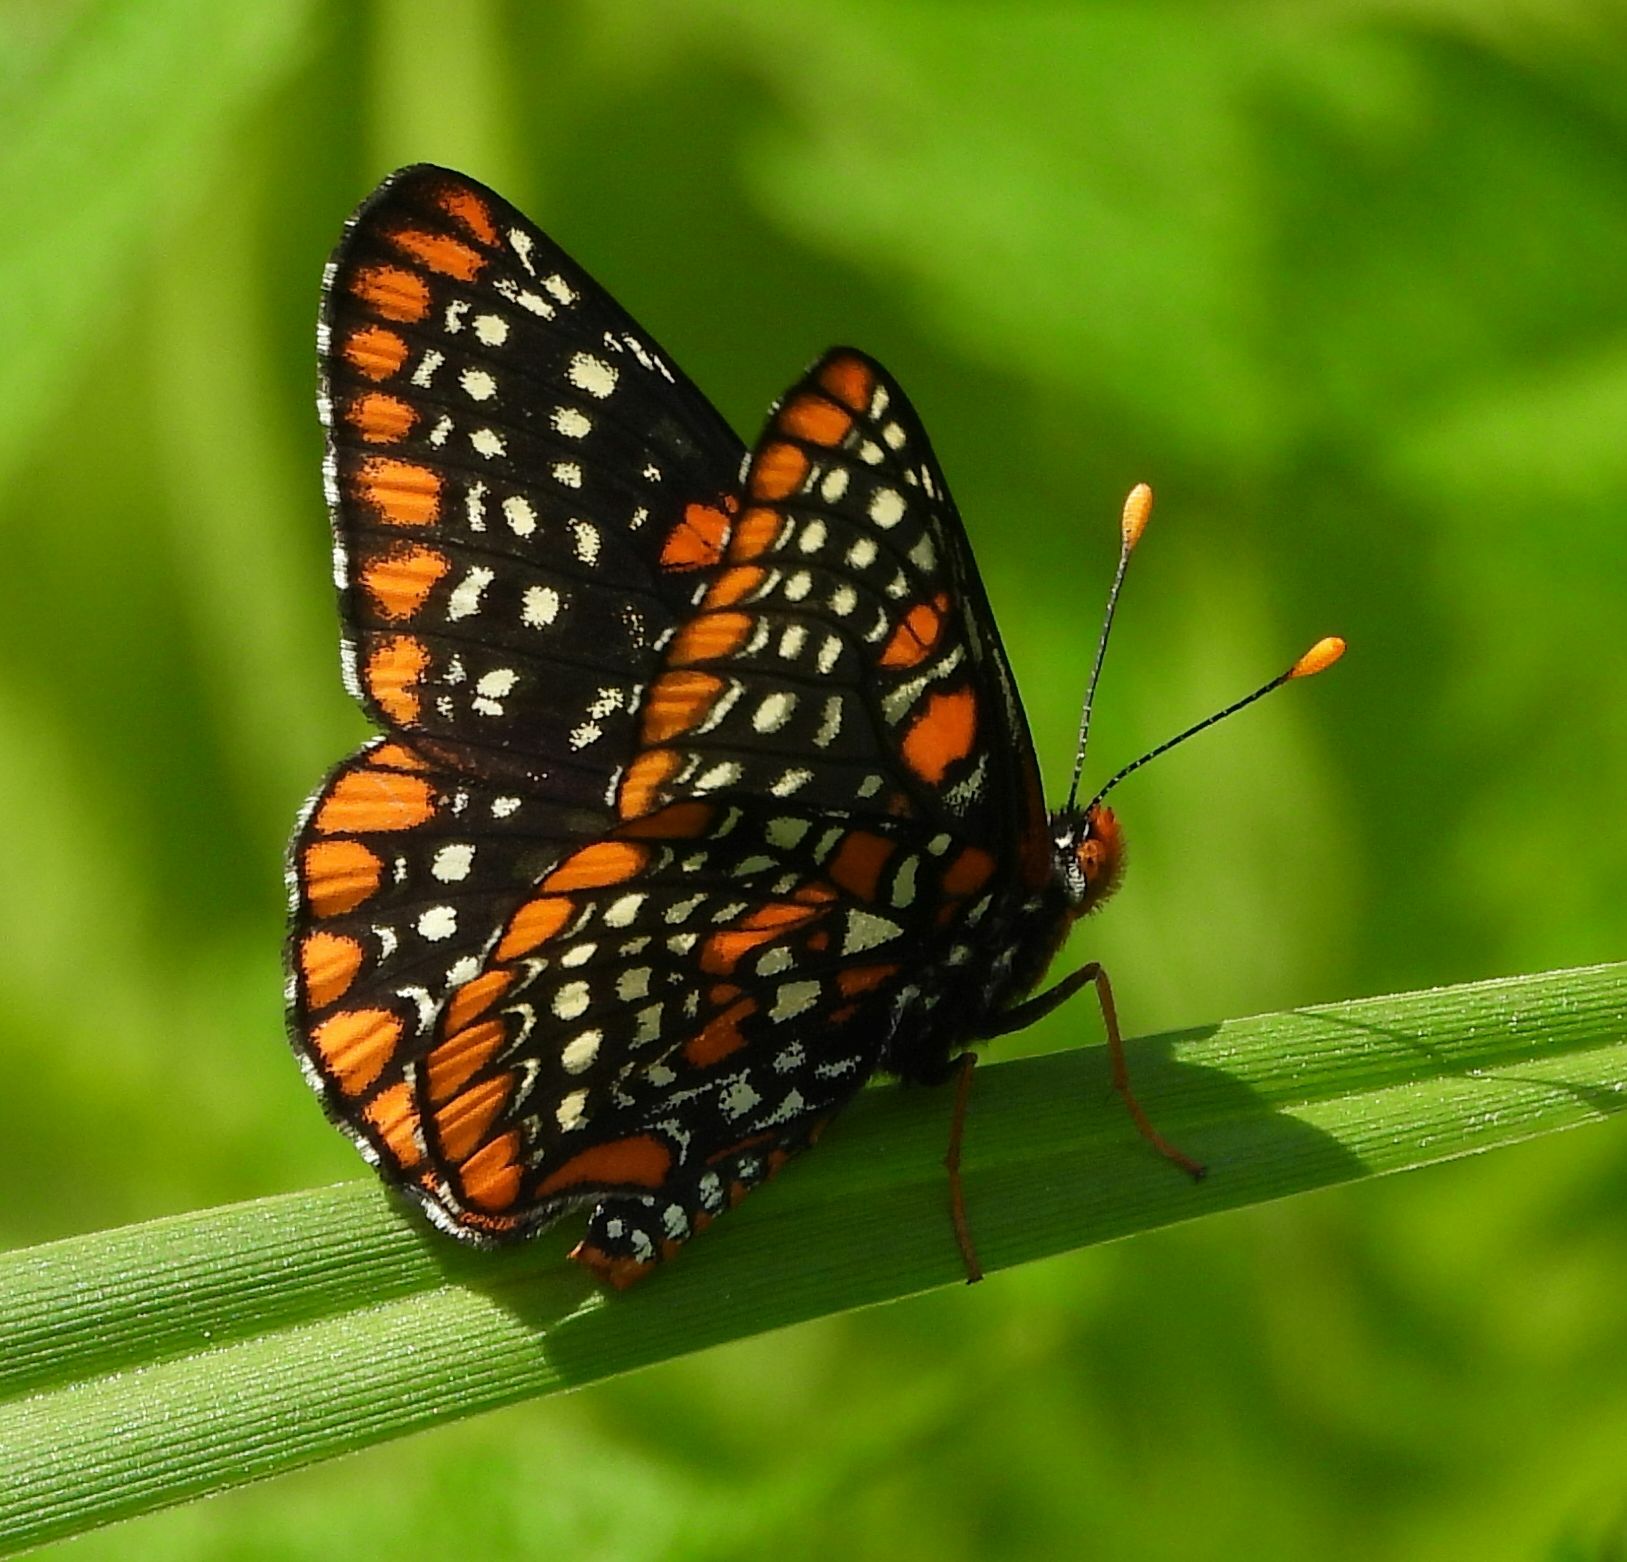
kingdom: Animalia
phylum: Arthropoda
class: Insecta
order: Lepidoptera
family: Nymphalidae
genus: Euphydryas
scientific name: Euphydryas phaeton
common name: Baltimore checkerspot
